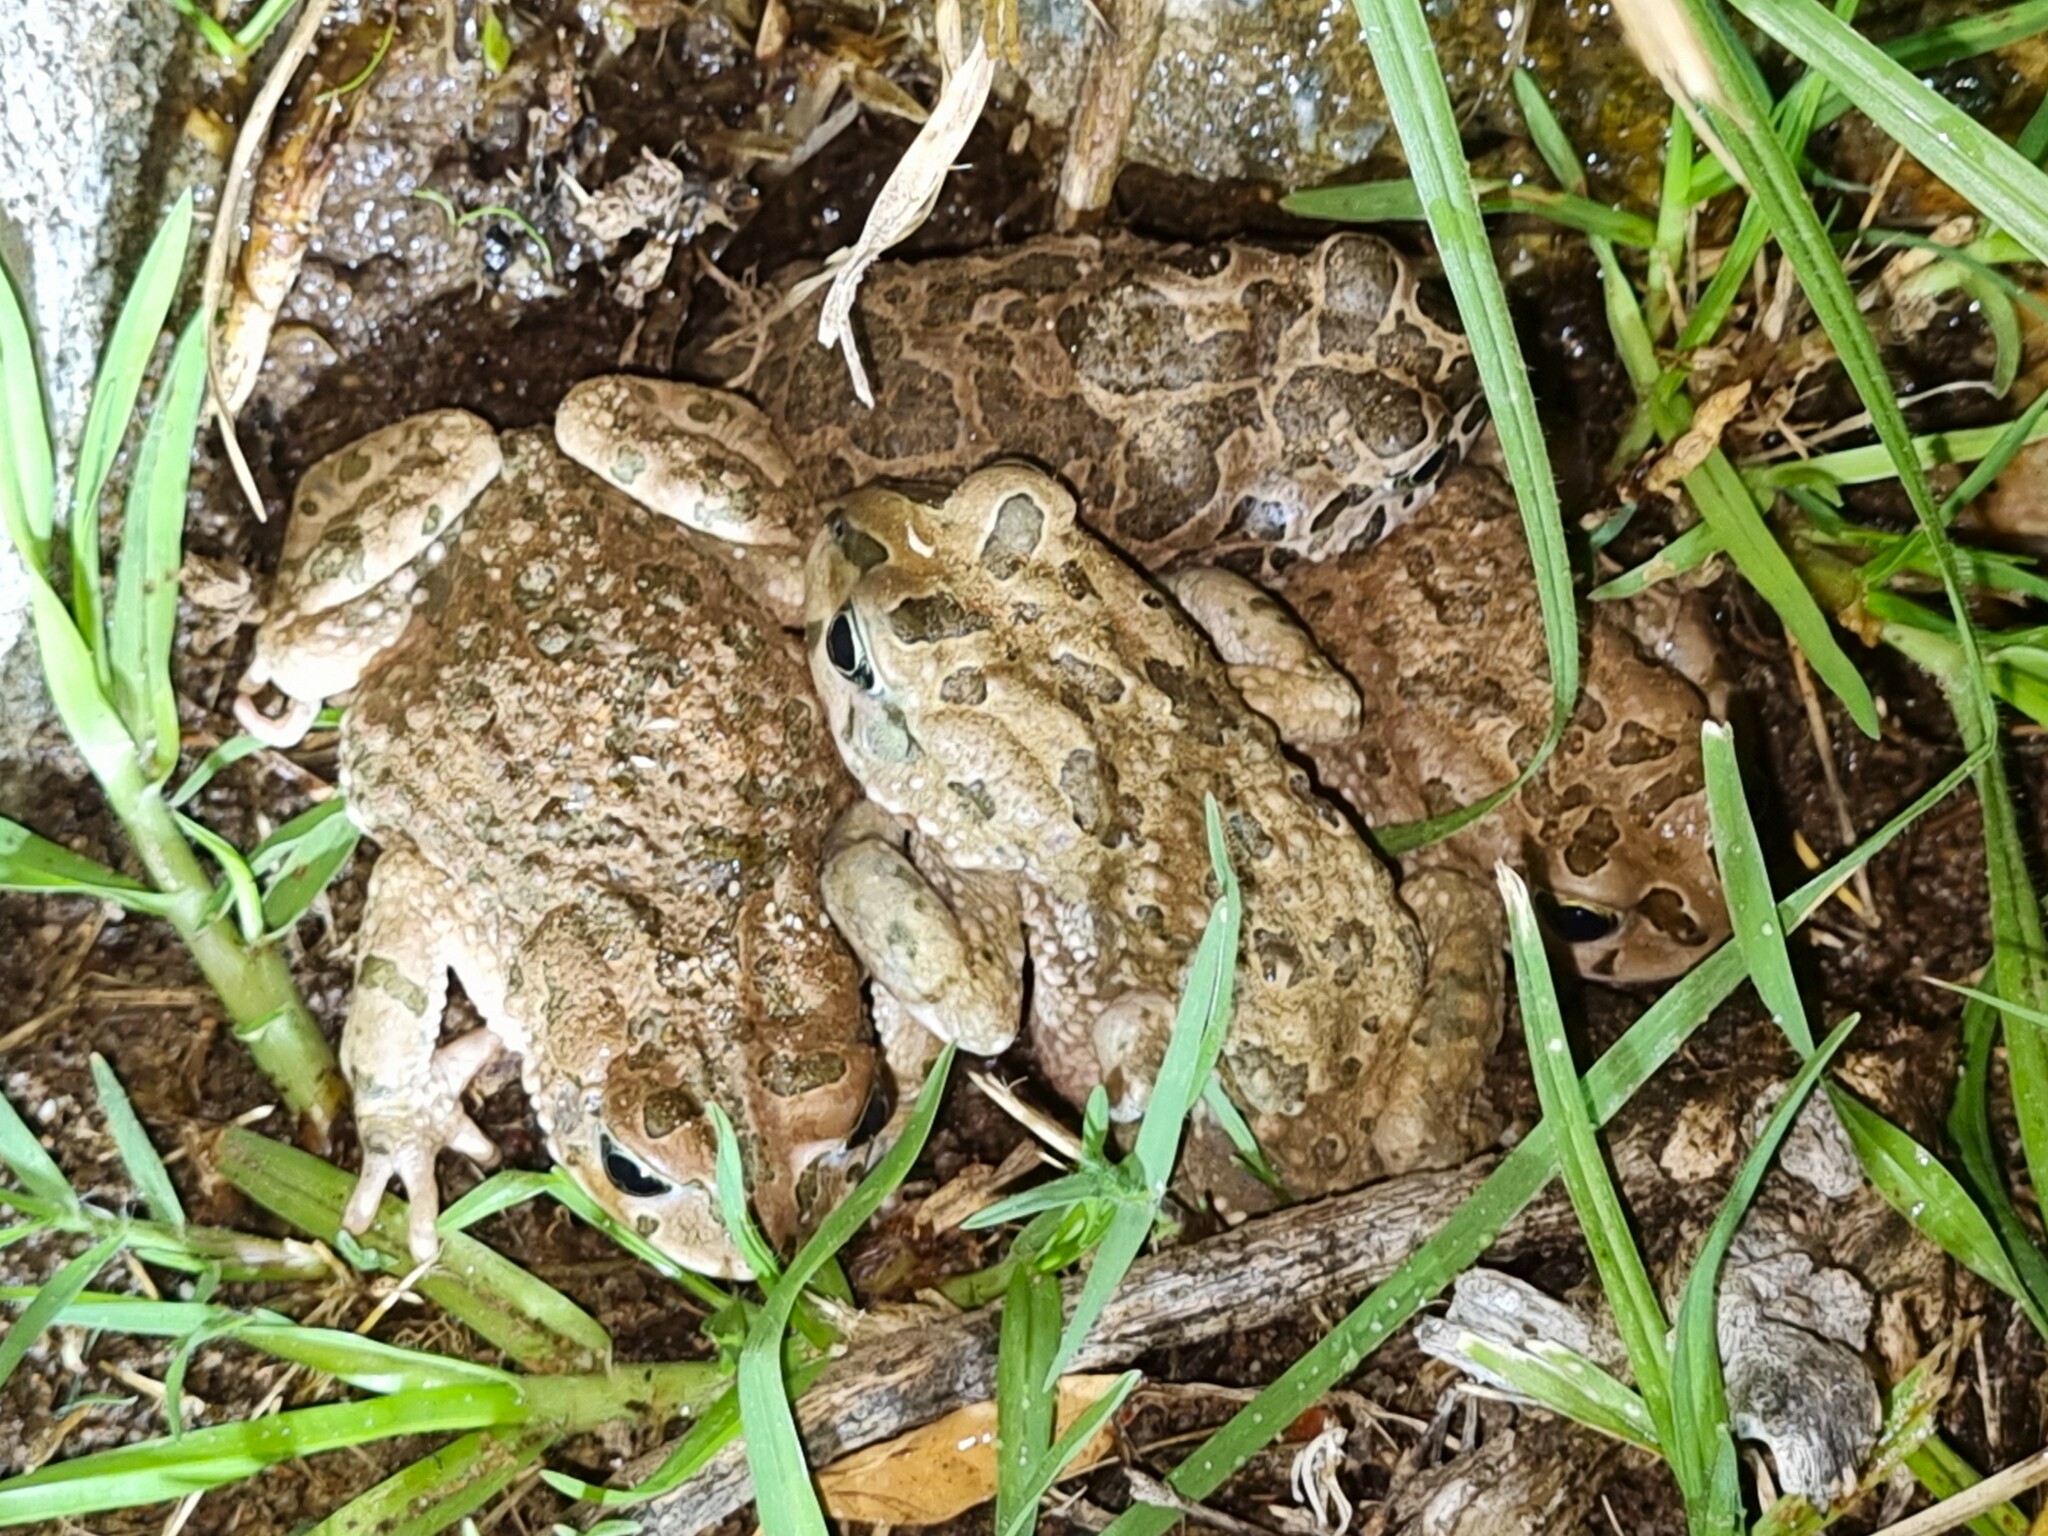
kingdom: Animalia
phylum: Chordata
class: Amphibia
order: Anura
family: Bufonidae
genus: Vandijkophrynus
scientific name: Vandijkophrynus gariepensis
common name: Gariep toad
